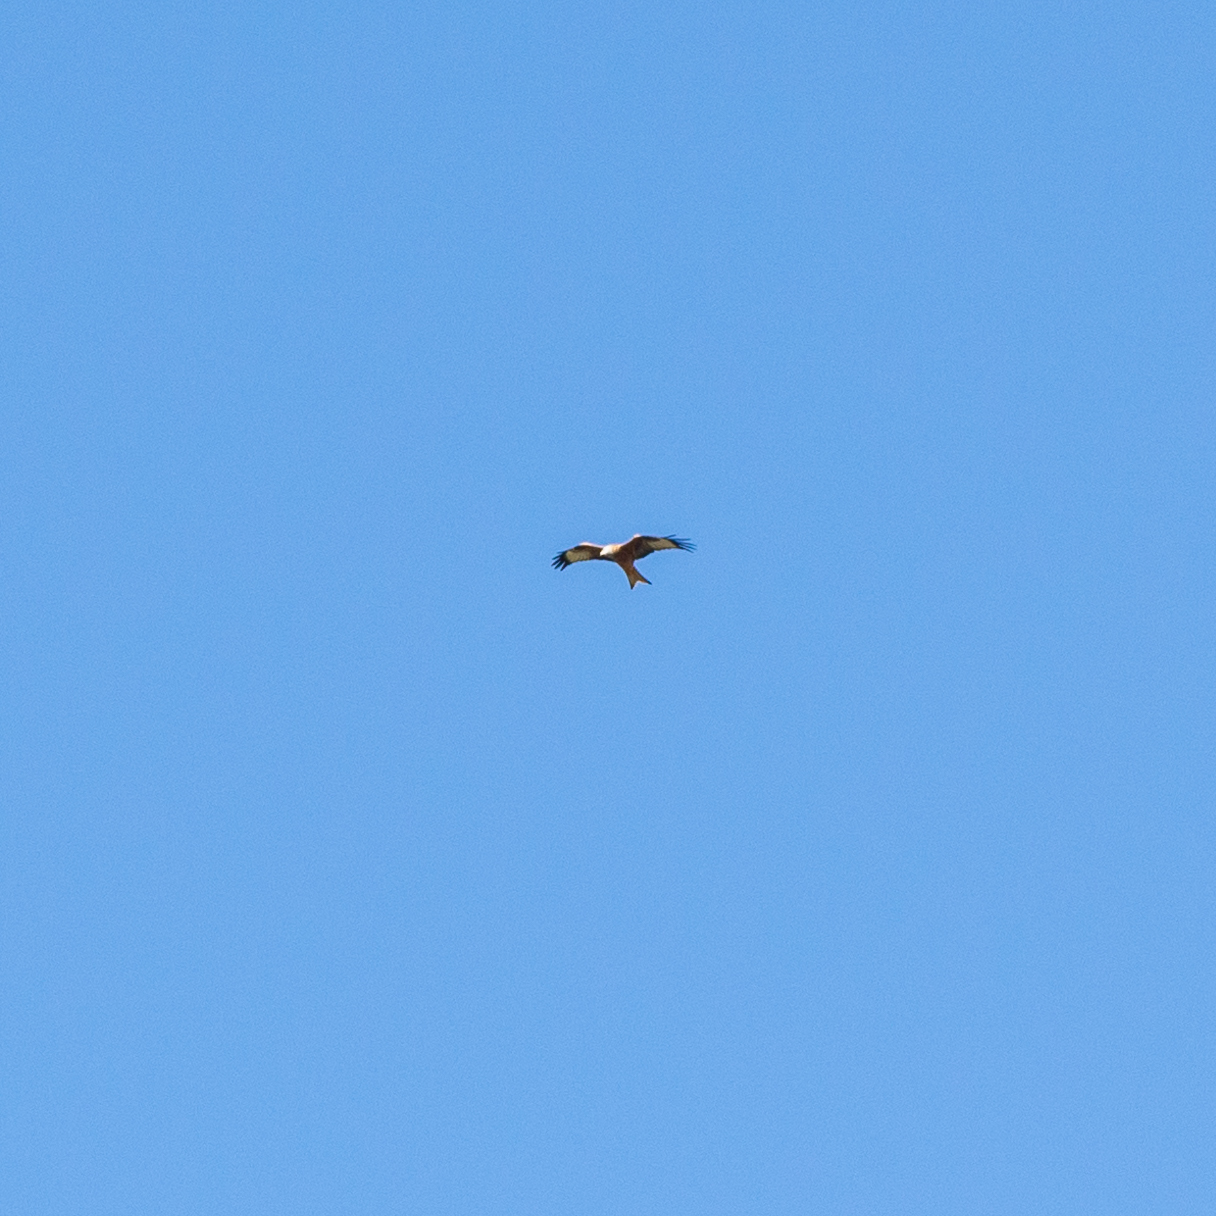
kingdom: Animalia
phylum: Chordata
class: Aves
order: Accipitriformes
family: Accipitridae
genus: Milvus
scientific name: Milvus milvus
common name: Red kite
